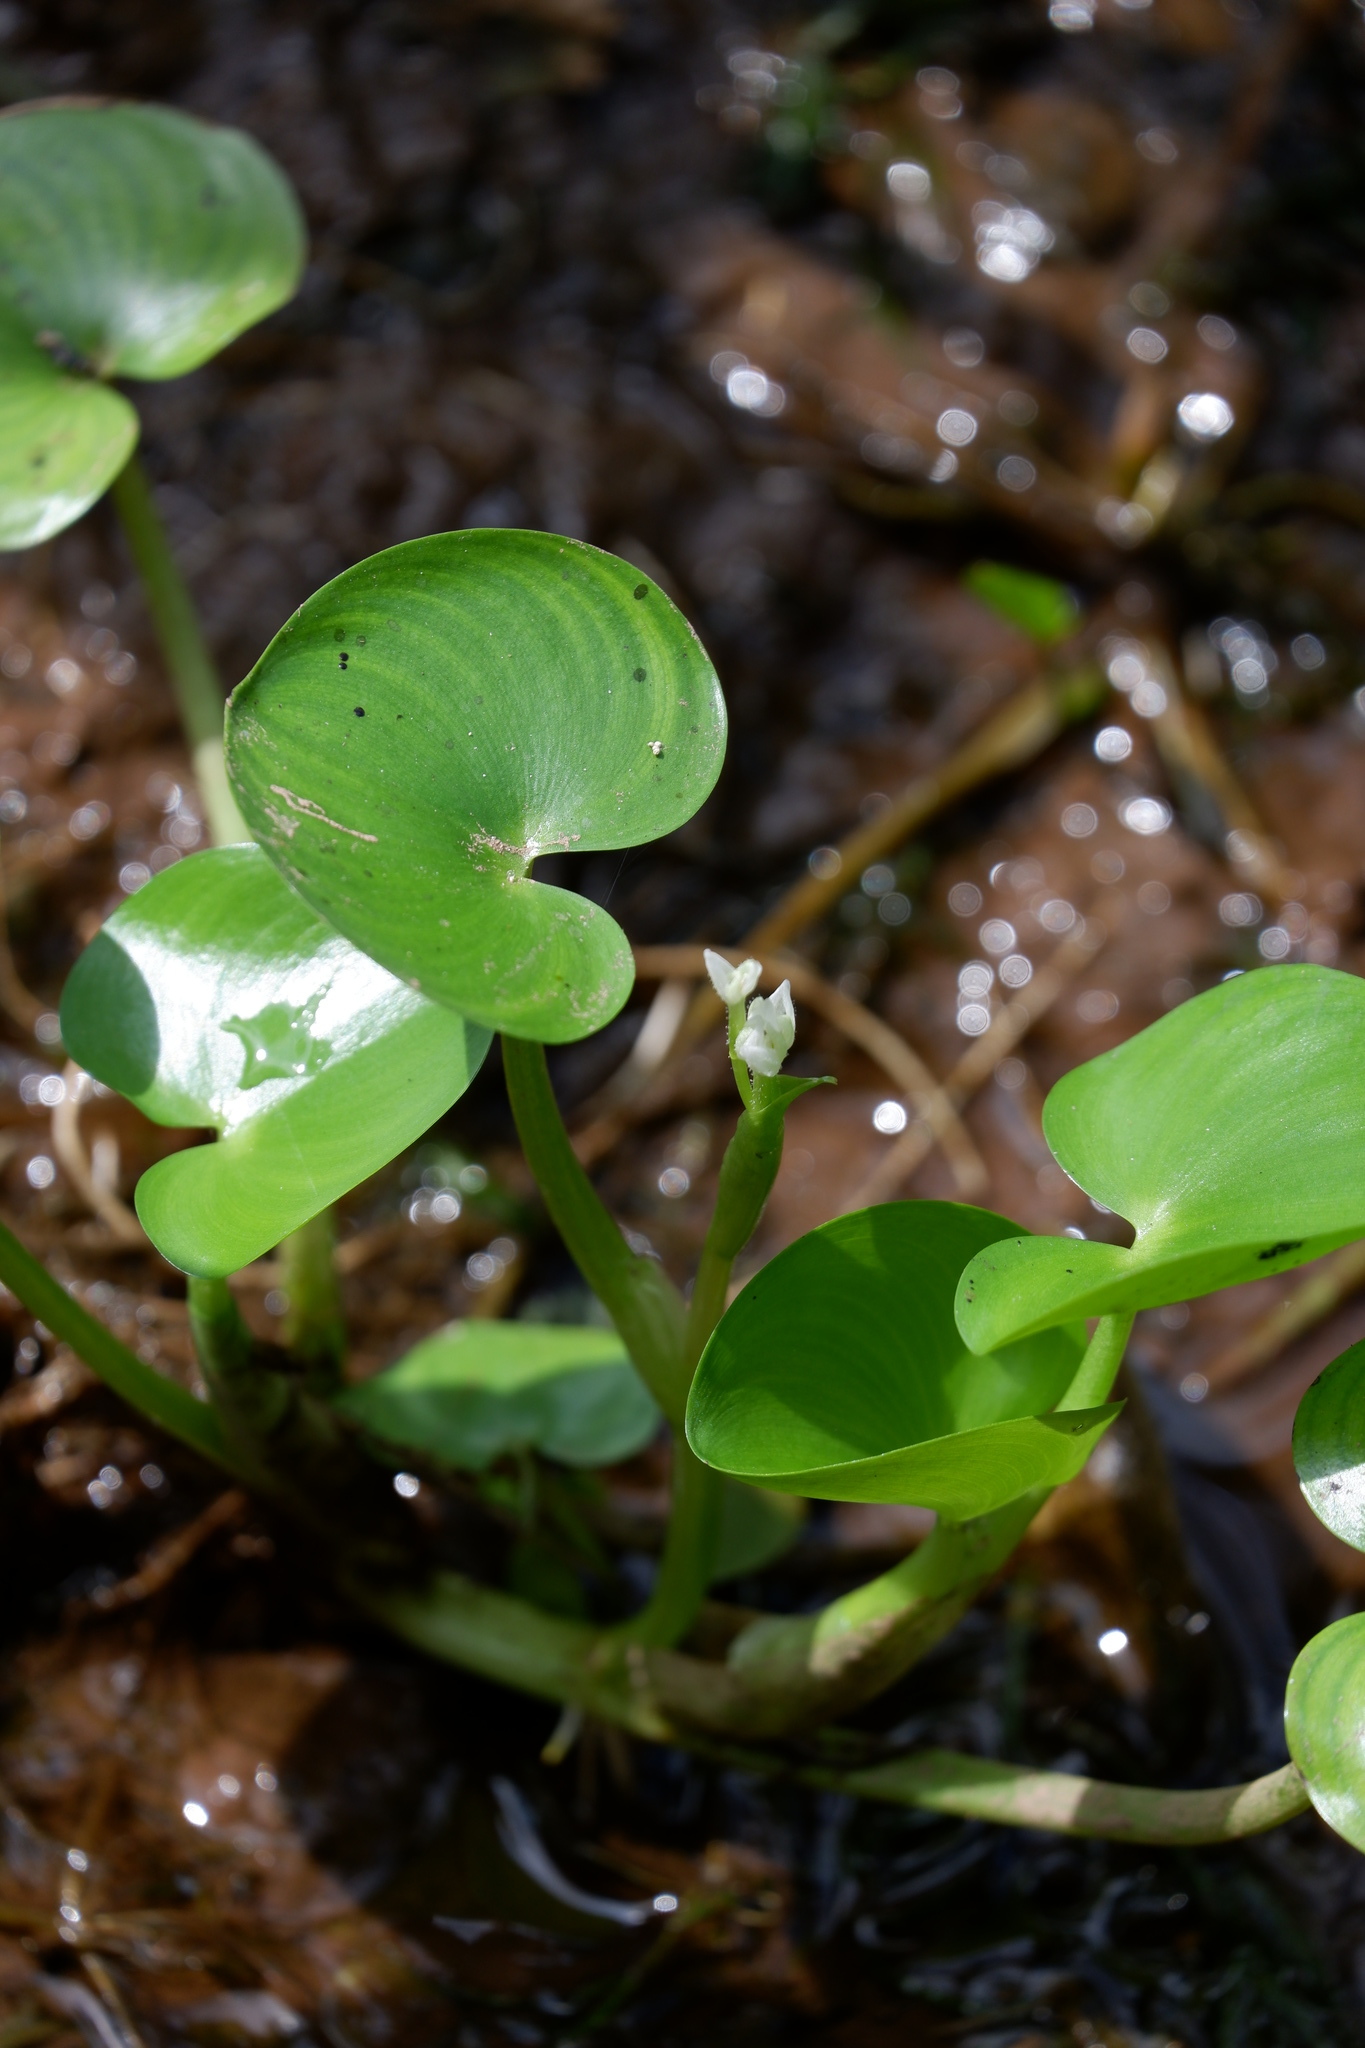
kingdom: Plantae
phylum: Tracheophyta
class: Liliopsida
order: Commelinales
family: Pontederiaceae
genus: Heteranthera
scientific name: Heteranthera reniformis
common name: Kidneyleaf mudplantain
